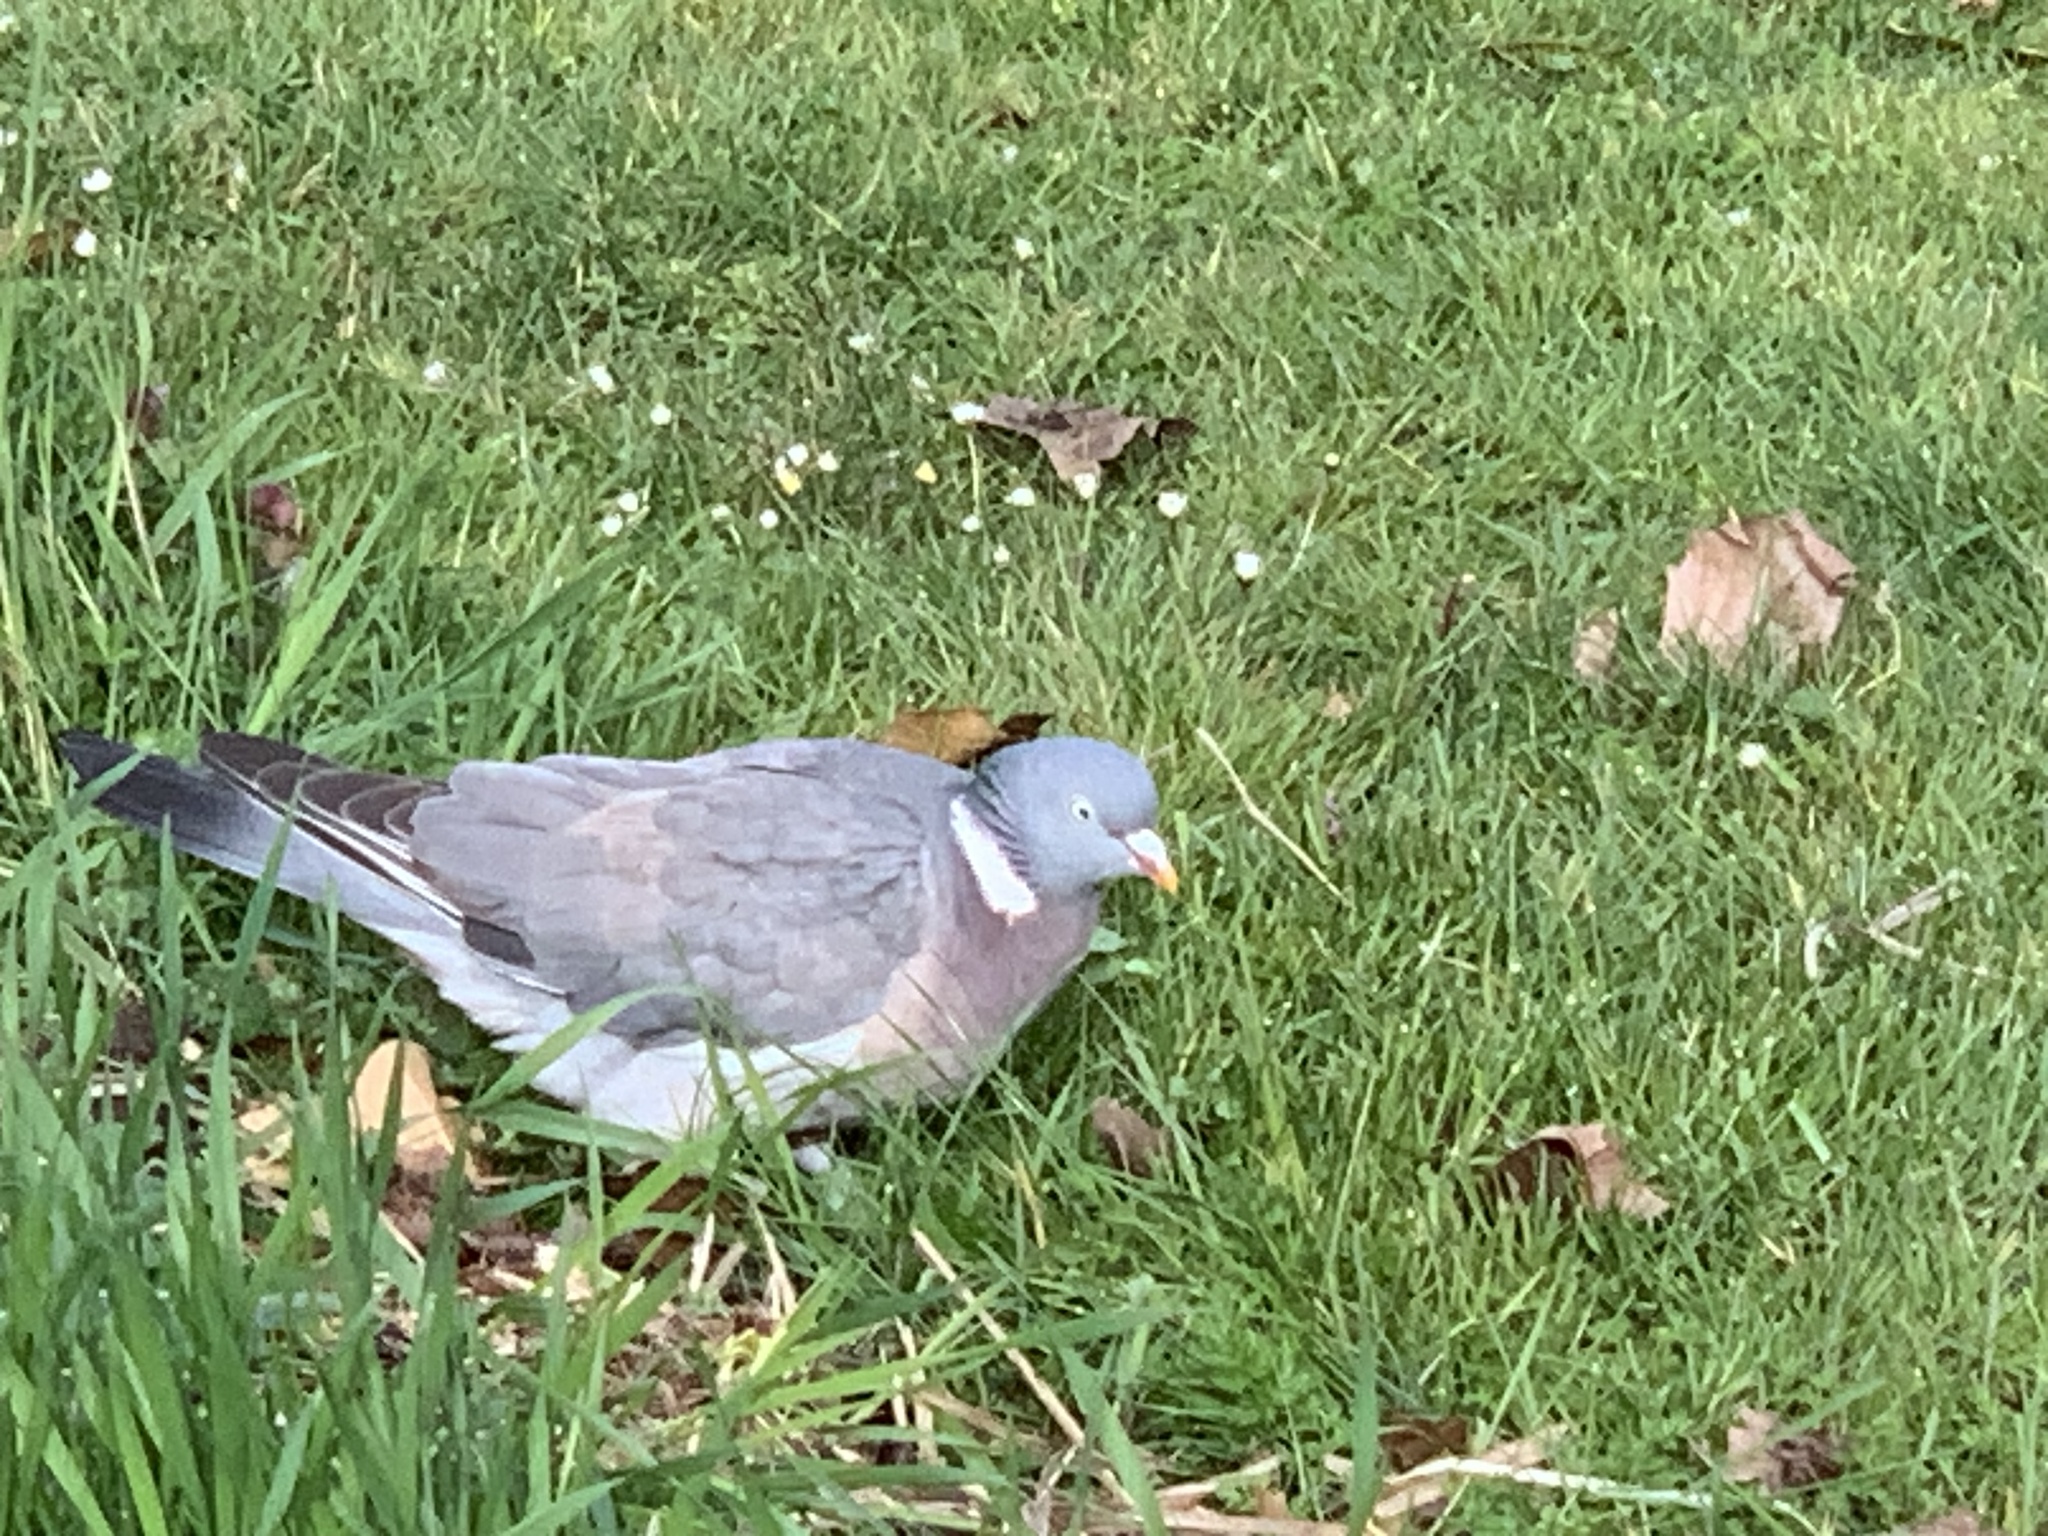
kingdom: Animalia
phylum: Chordata
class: Aves
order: Columbiformes
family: Columbidae
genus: Columba
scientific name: Columba palumbus
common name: Common wood pigeon
